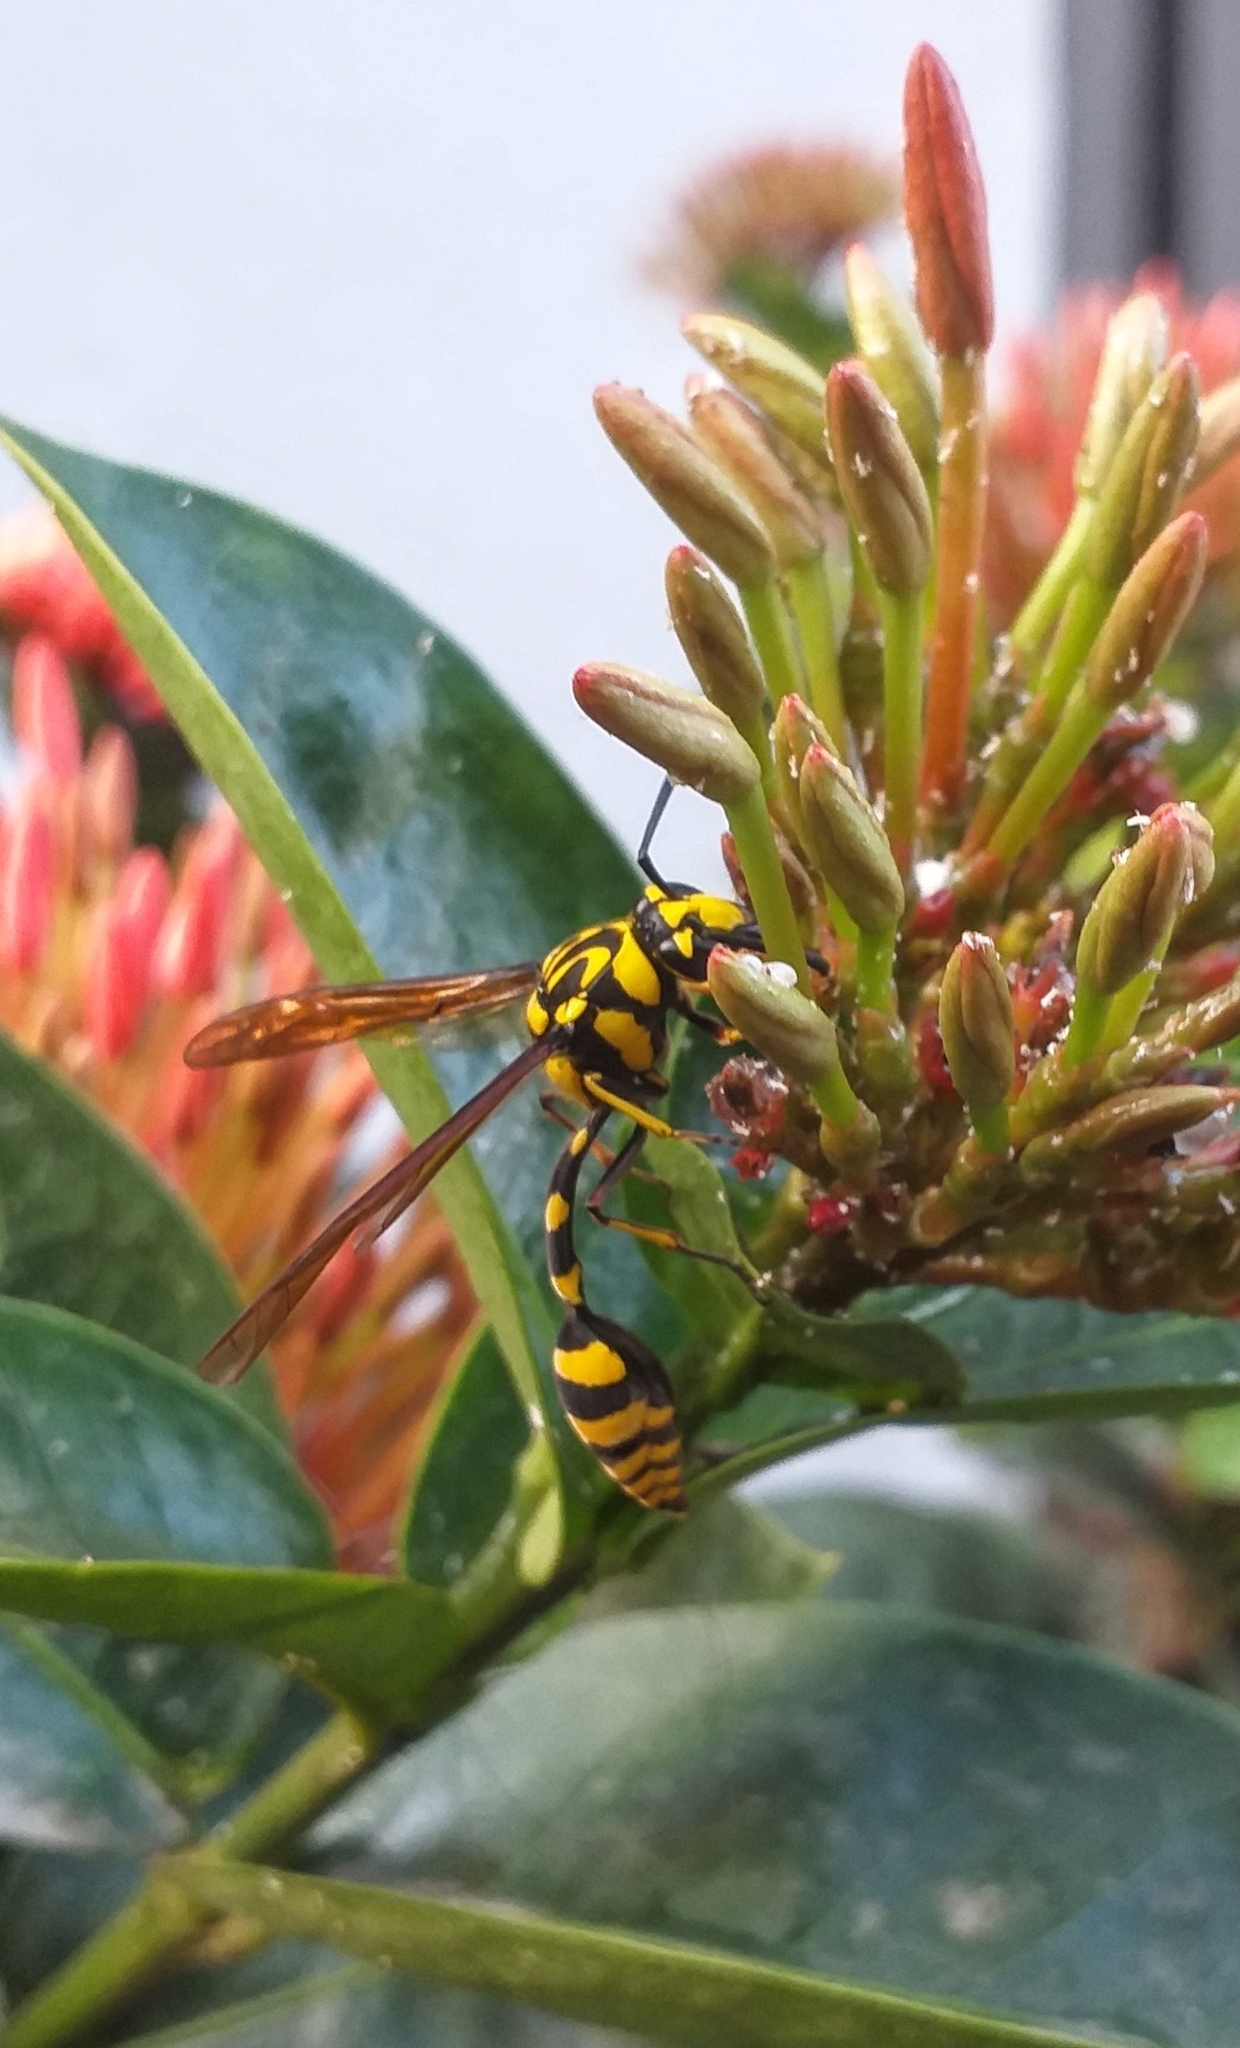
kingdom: Animalia
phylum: Arthropoda
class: Insecta
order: Hymenoptera
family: Eumenidae
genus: Phimenes
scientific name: Phimenes flavopictus
